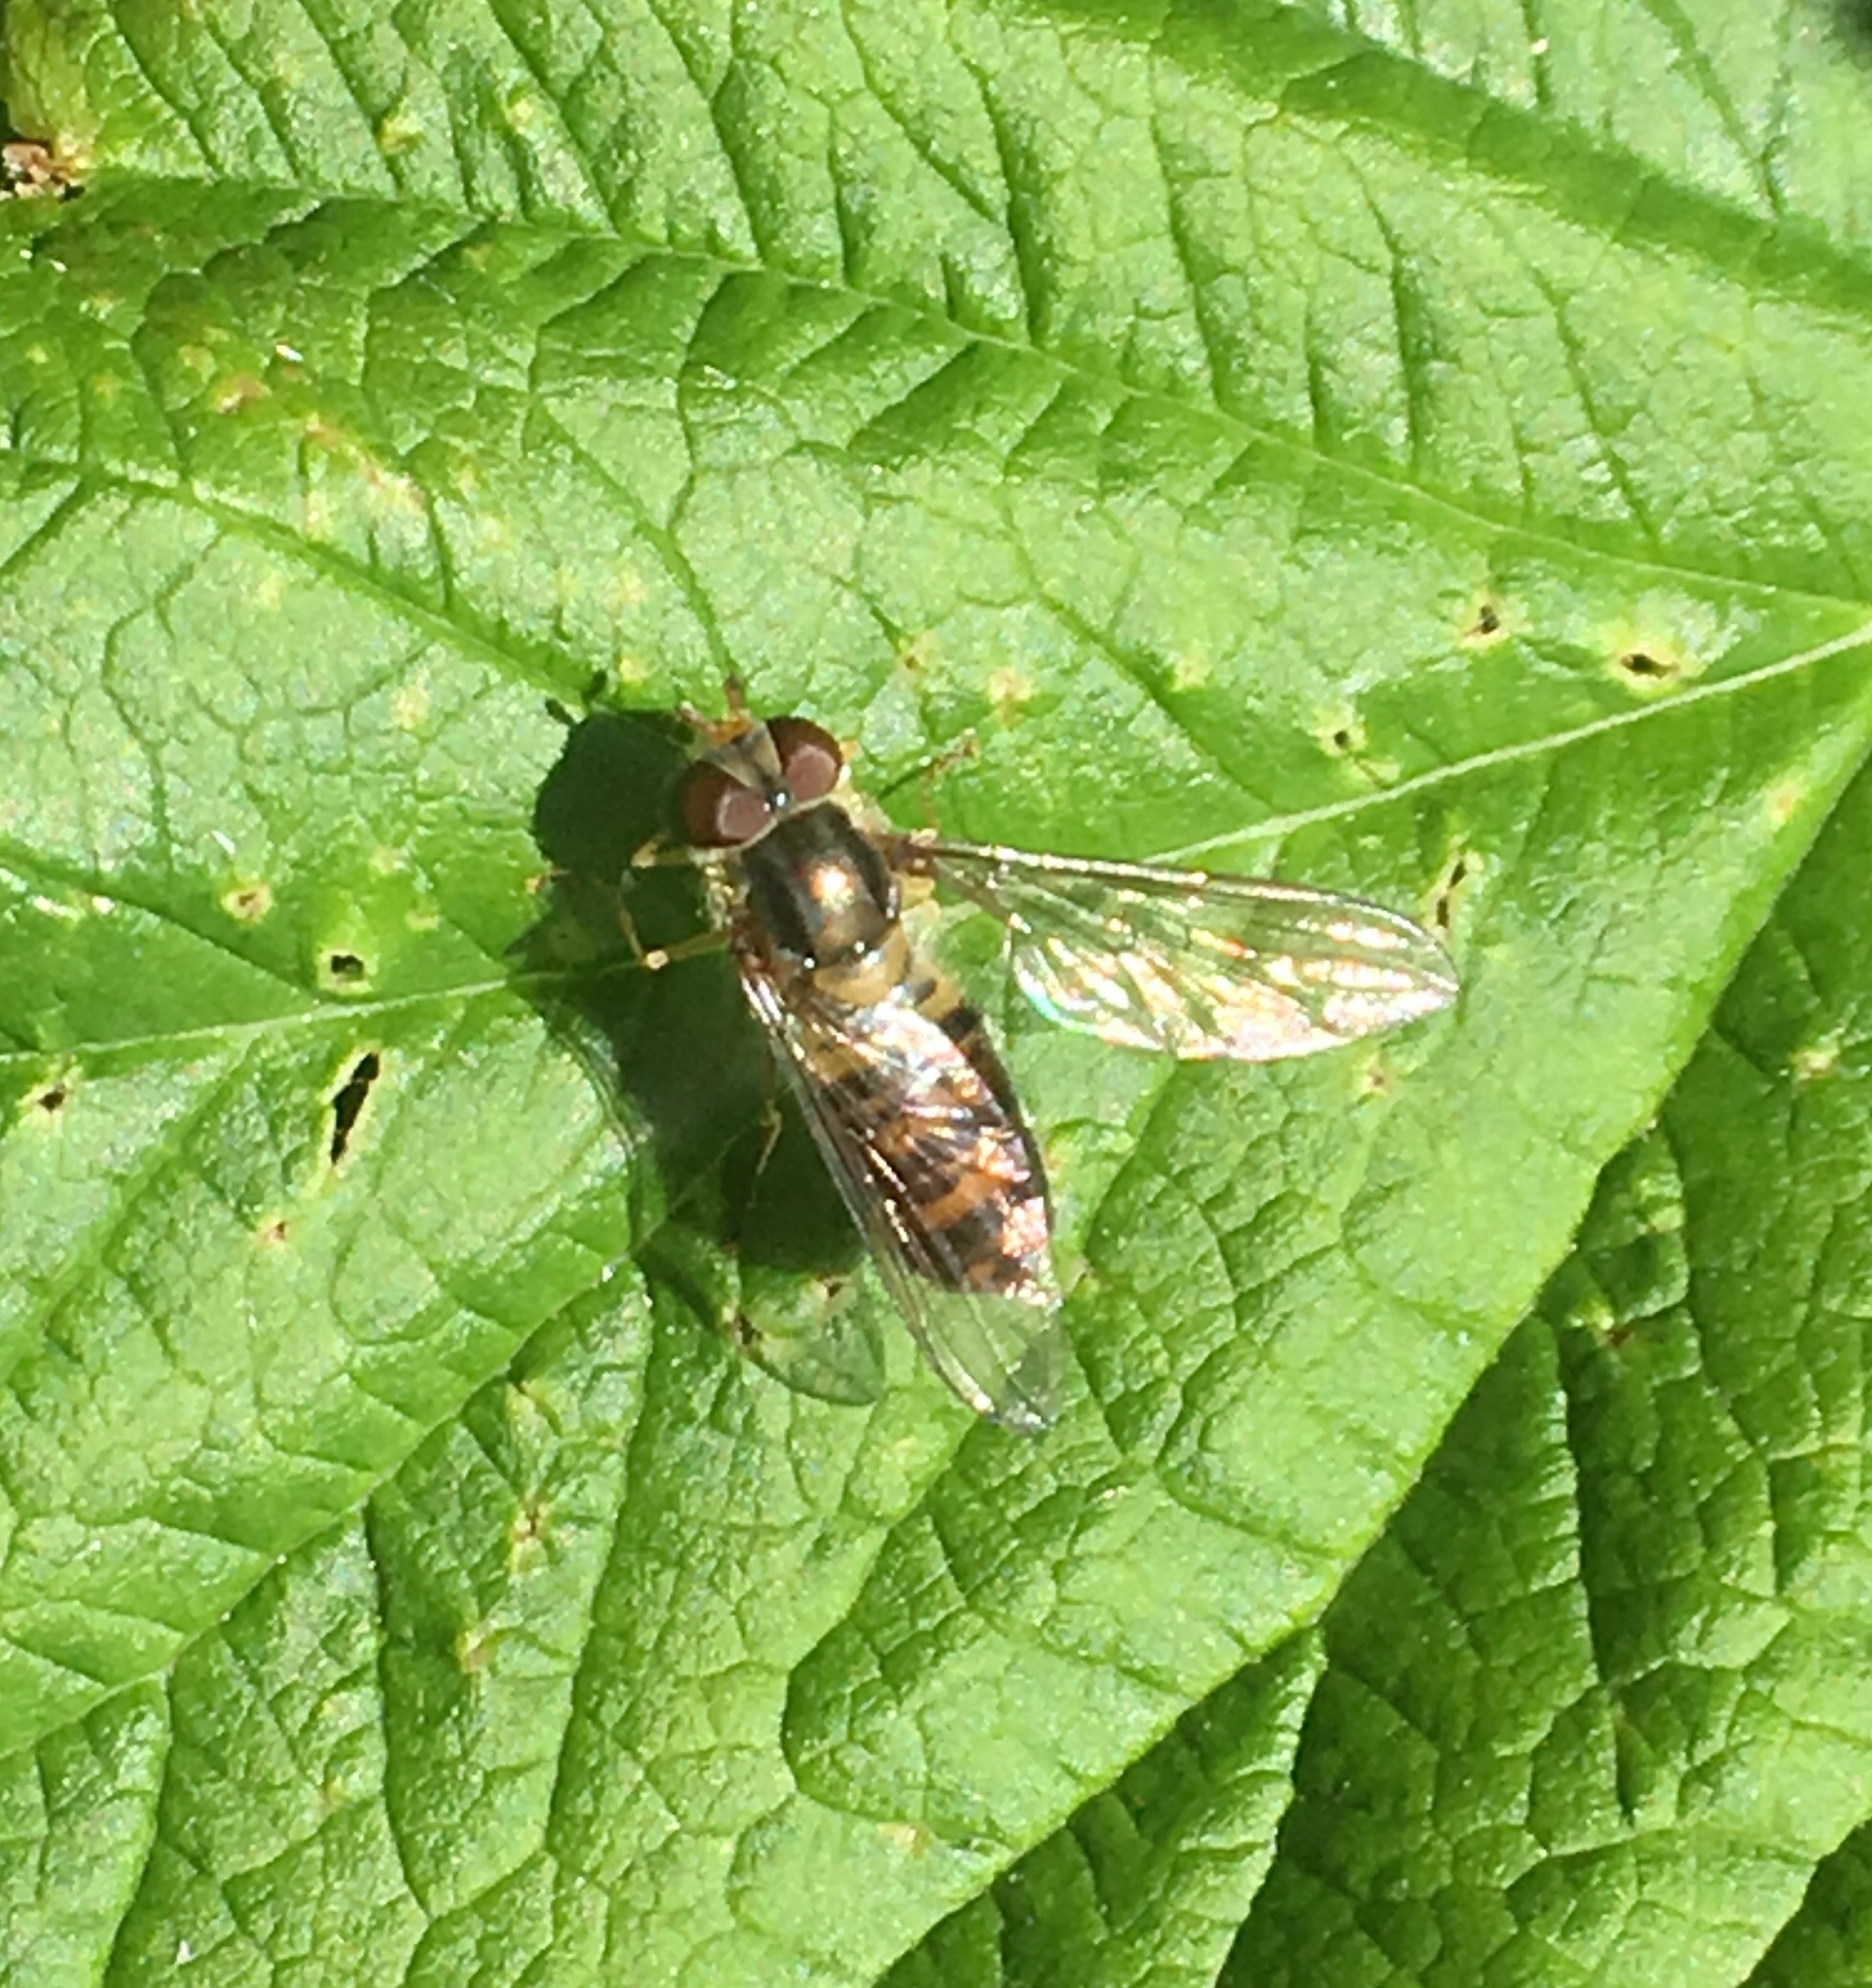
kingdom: Animalia
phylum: Arthropoda
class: Insecta
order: Diptera
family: Syrphidae
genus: Episyrphus
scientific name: Episyrphus balteatus
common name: Marmalade hoverfly
